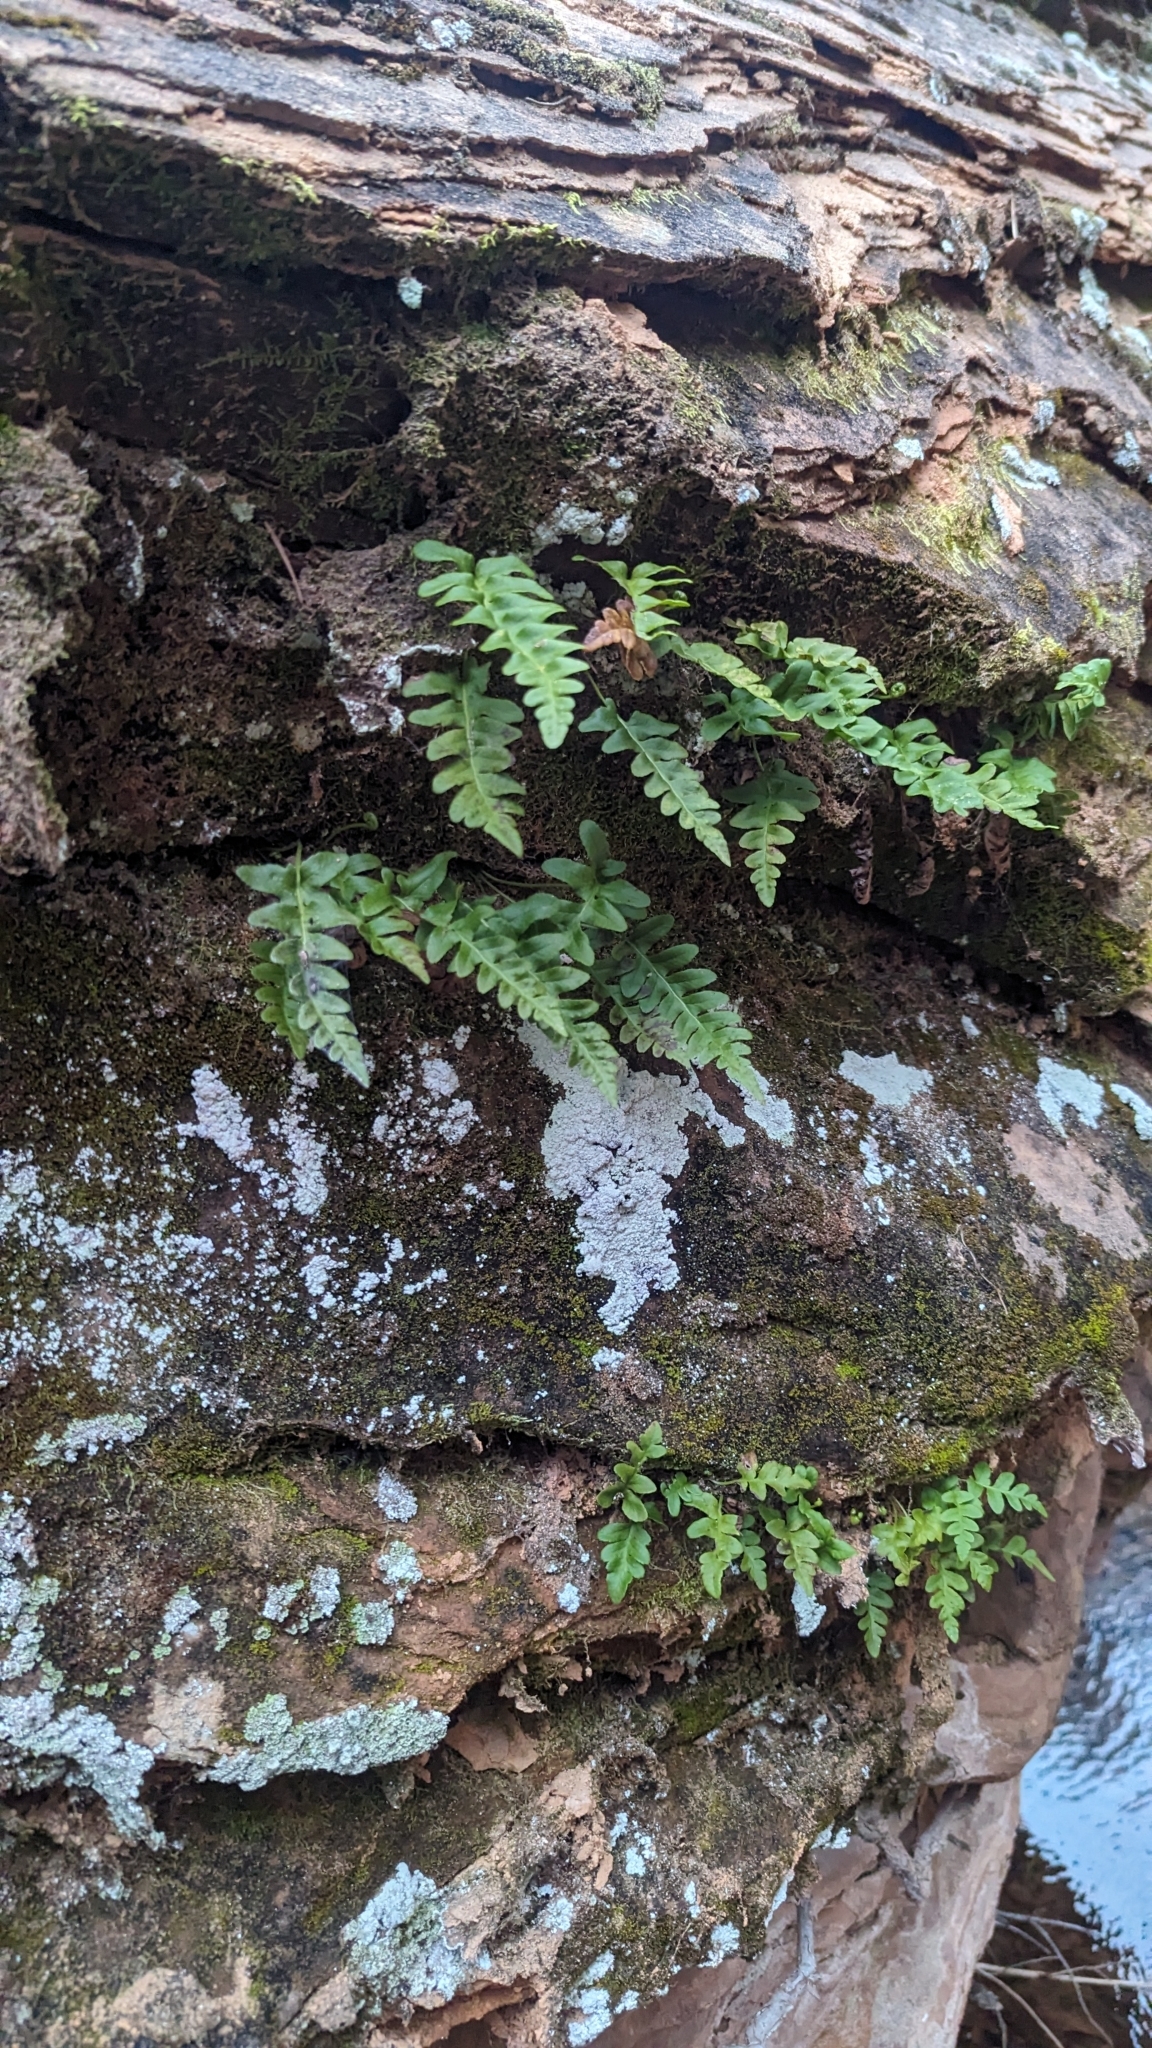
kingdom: Plantae
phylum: Tracheophyta
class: Polypodiopsida
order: Polypodiales
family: Polypodiaceae
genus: Polypodium
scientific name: Polypodium hesperium
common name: Western polypody
